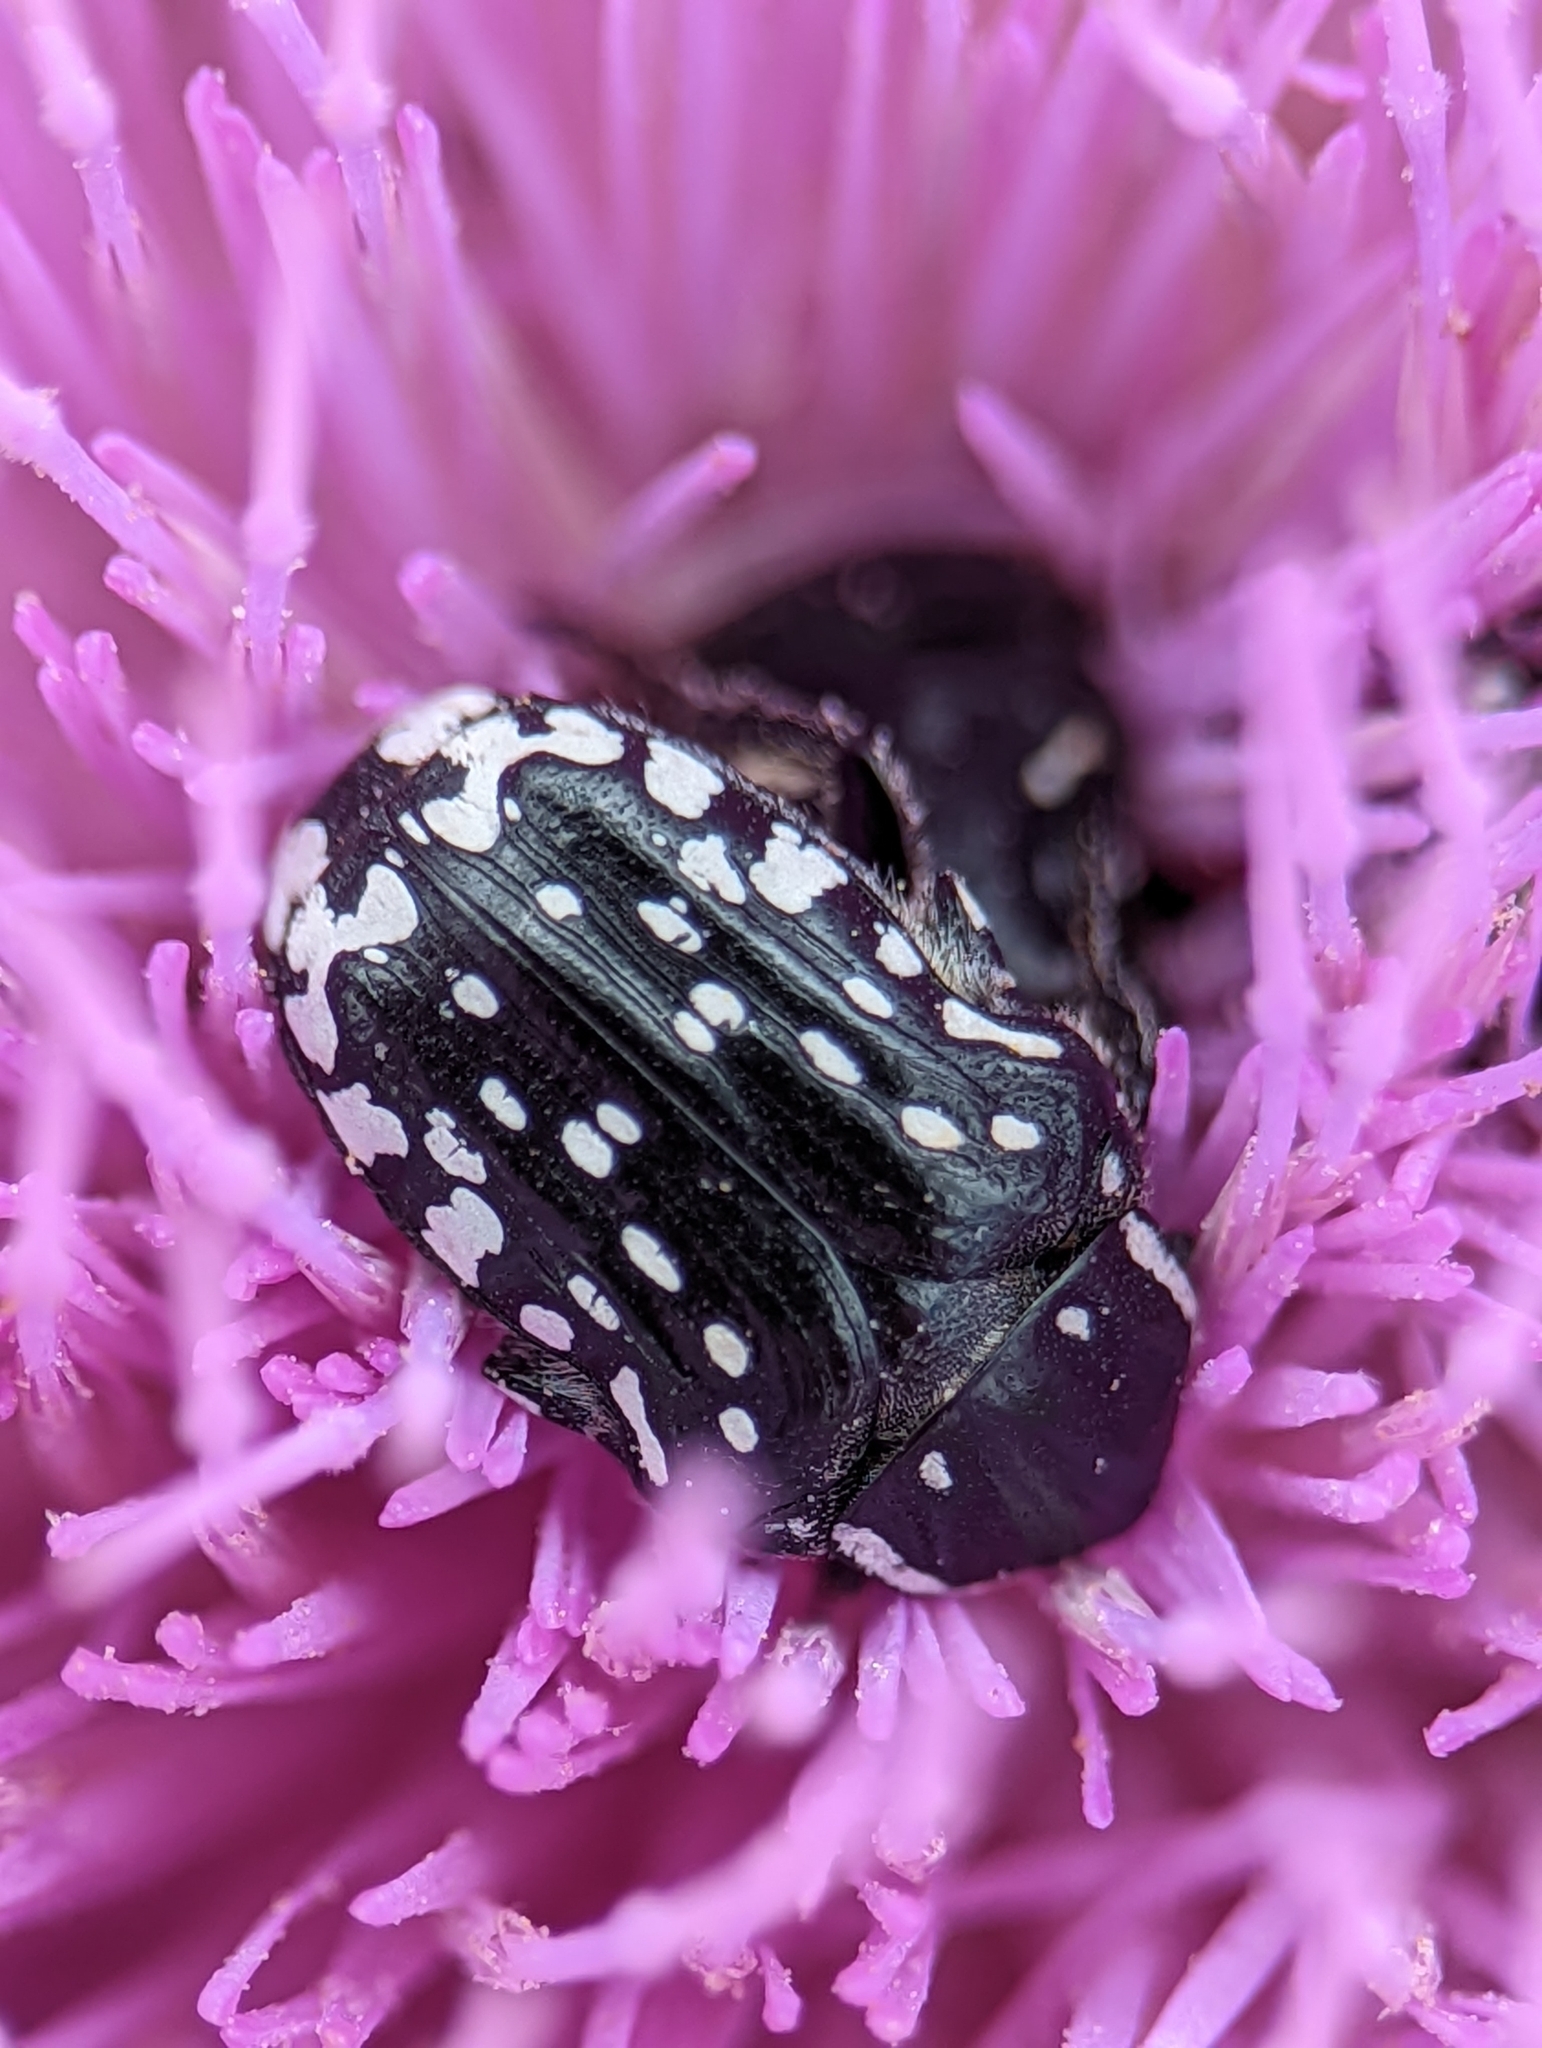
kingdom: Animalia
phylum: Arthropoda
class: Insecta
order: Coleoptera
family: Scarabaeidae
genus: Oxythyrea
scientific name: Oxythyrea cinctella
